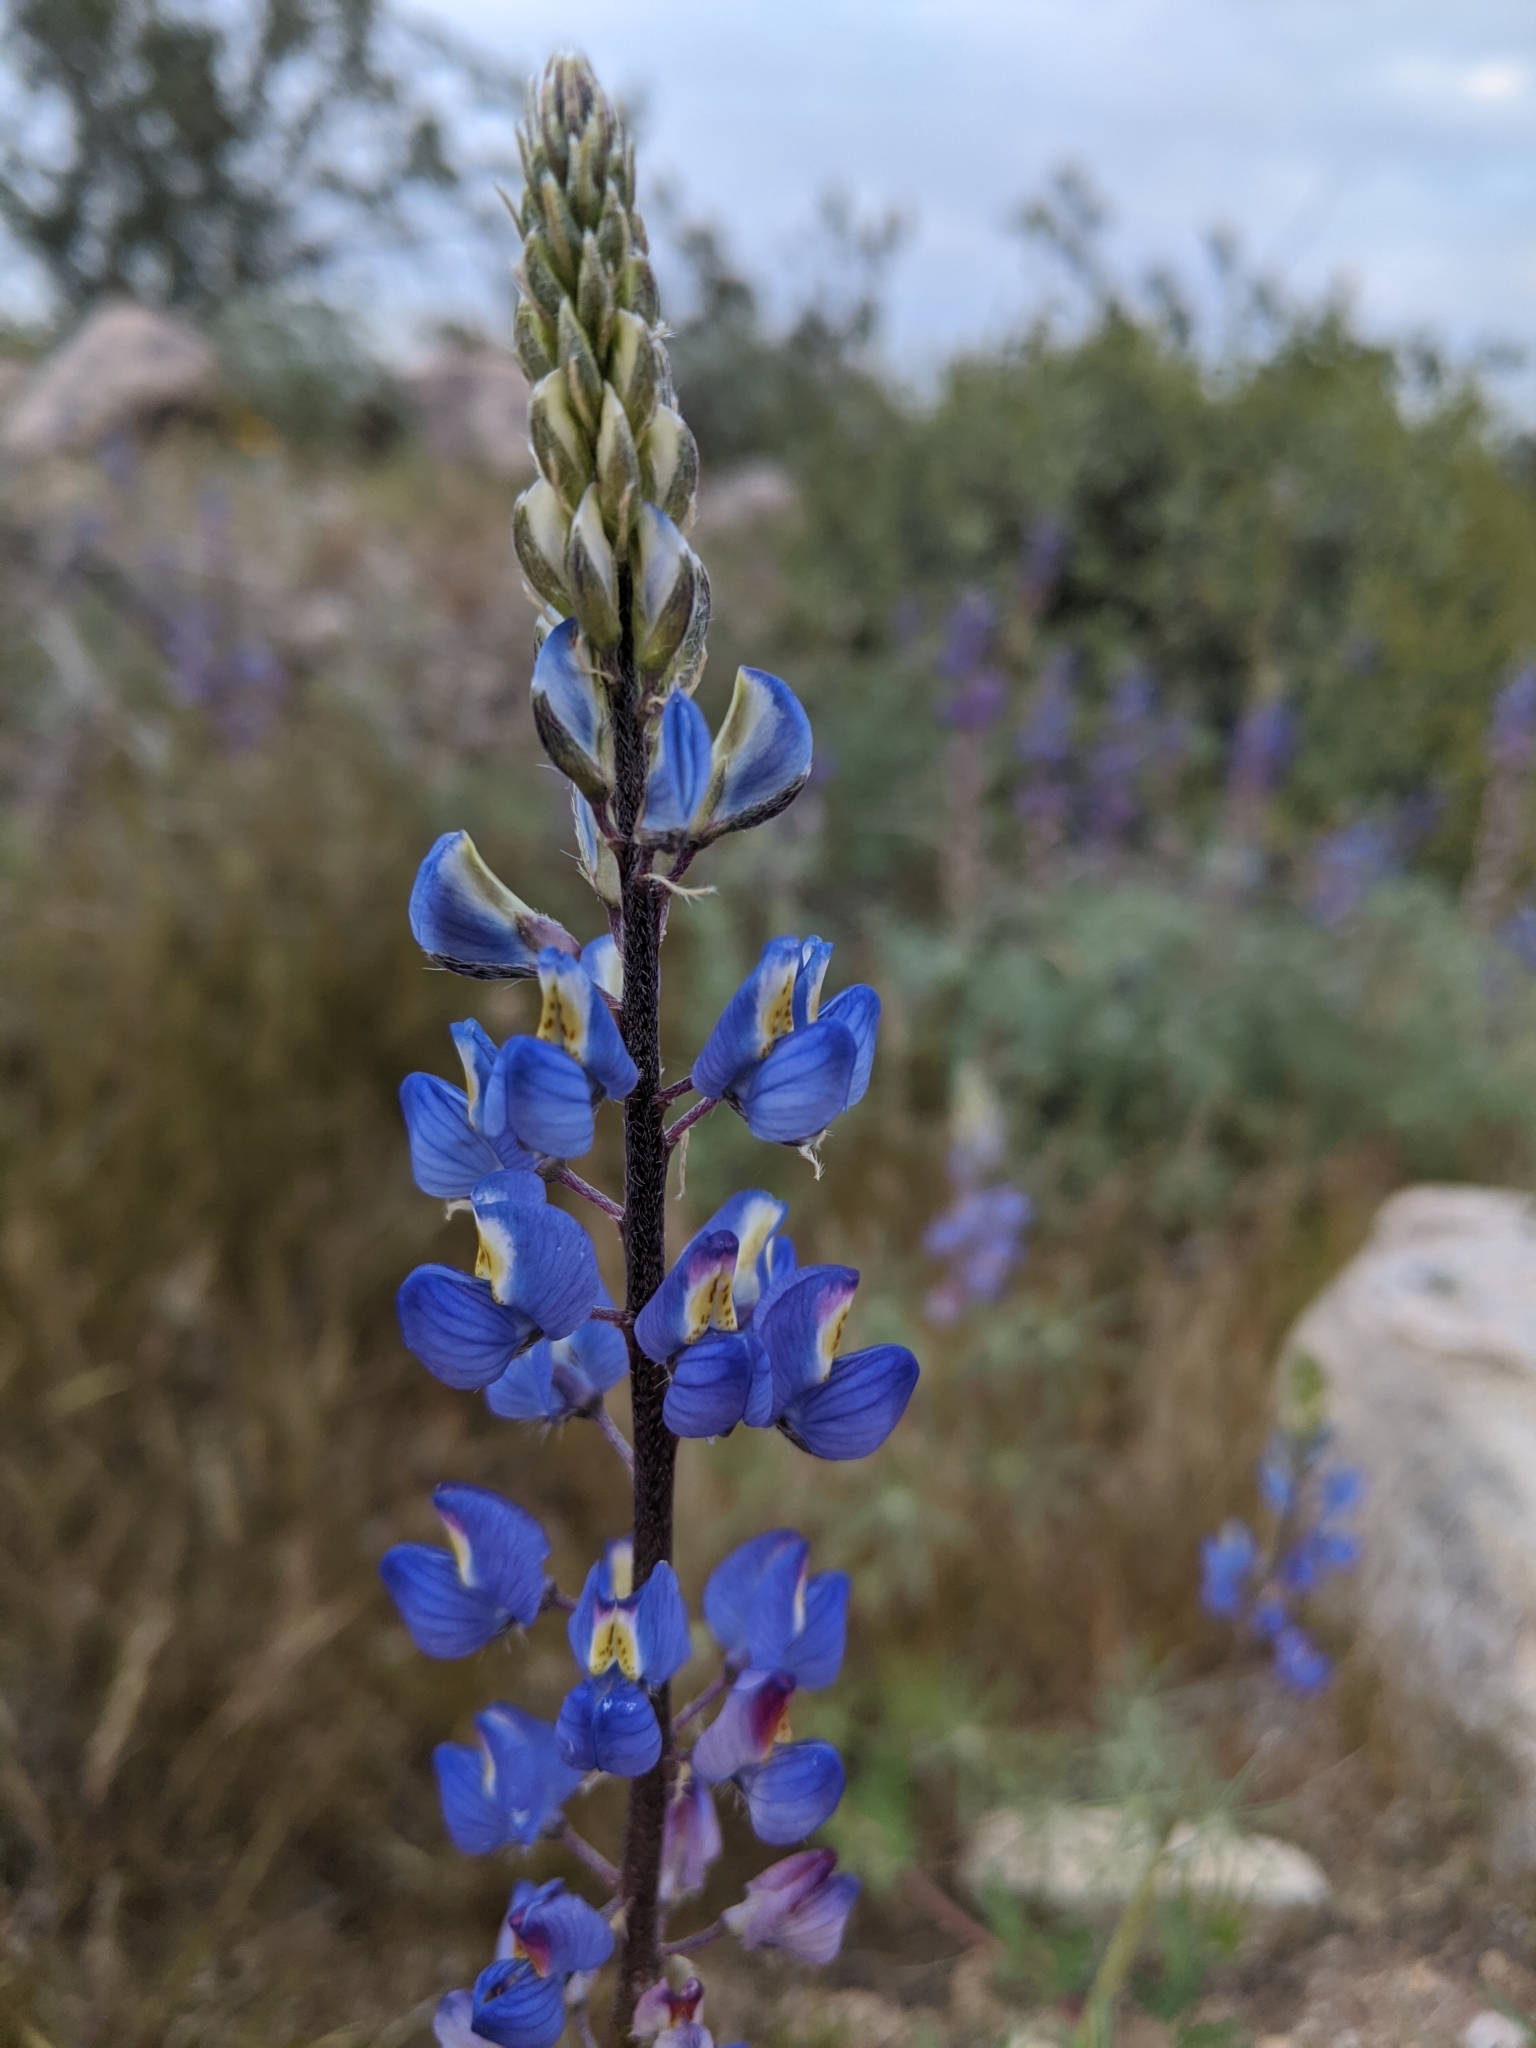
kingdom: Plantae
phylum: Tracheophyta
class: Magnoliopsida
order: Fabales
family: Fabaceae
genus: Lupinus
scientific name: Lupinus sparsiflorus
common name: Coulter's lupine
